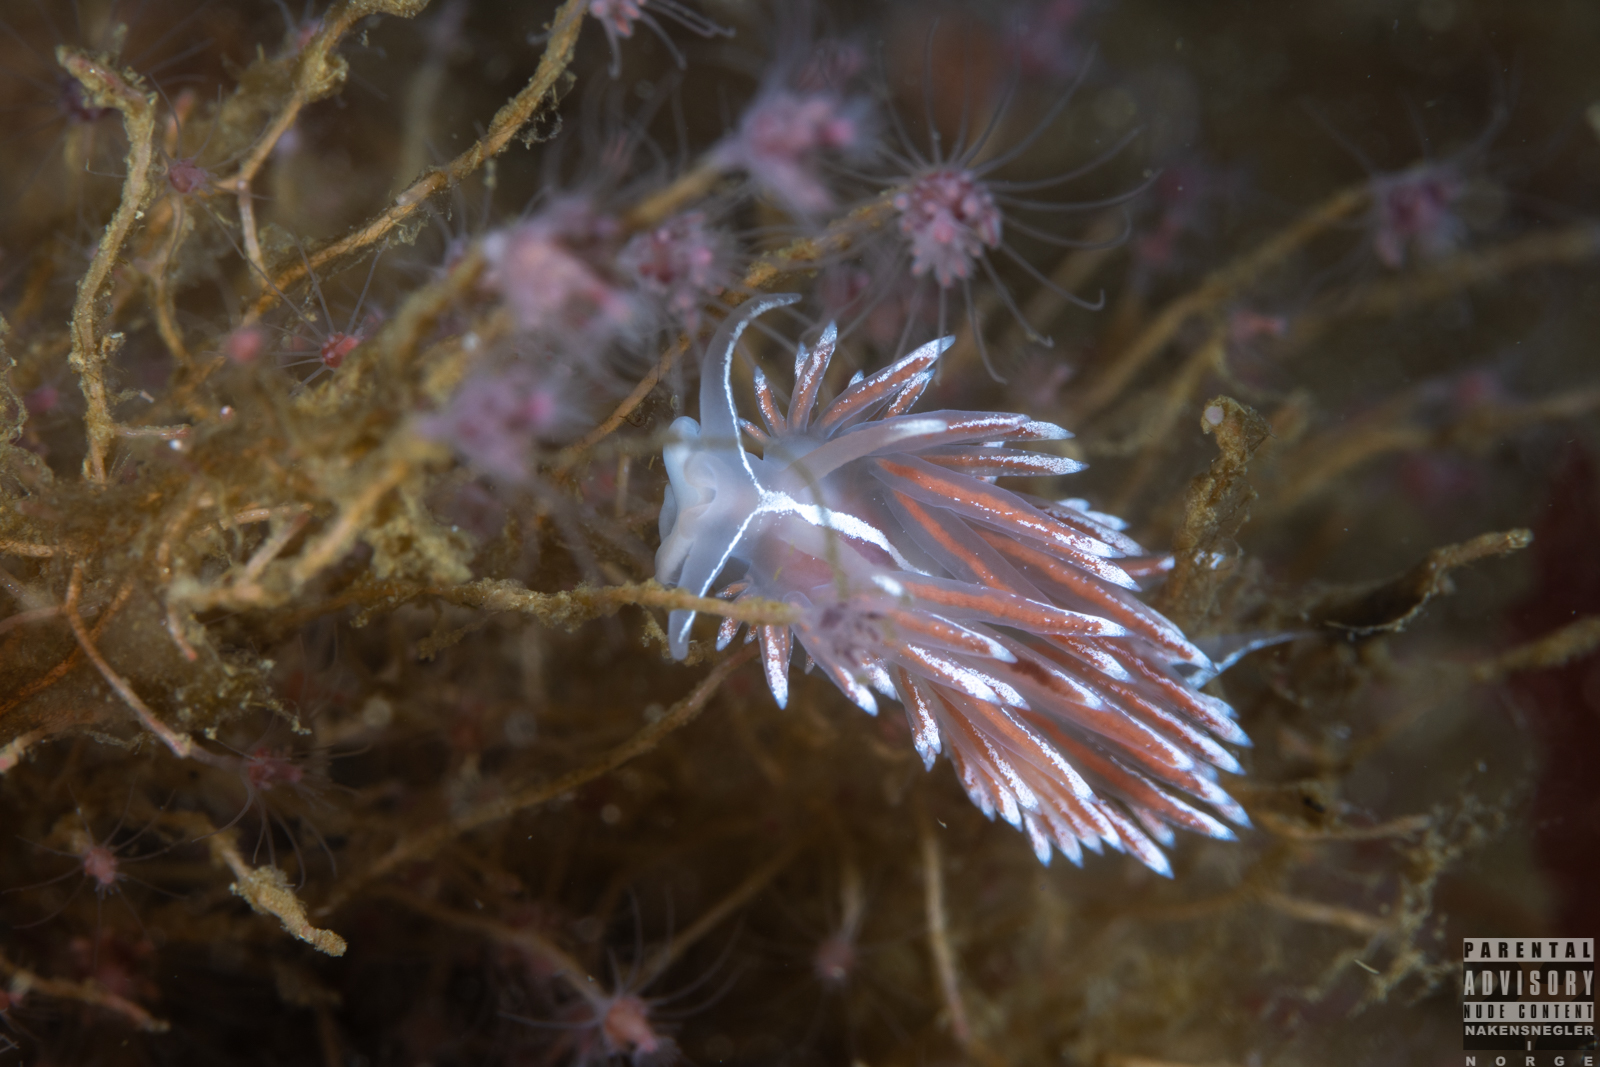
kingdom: Animalia
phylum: Mollusca
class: Gastropoda
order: Nudibranchia
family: Coryphellidae
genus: Coryphella
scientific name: Coryphella lineata
